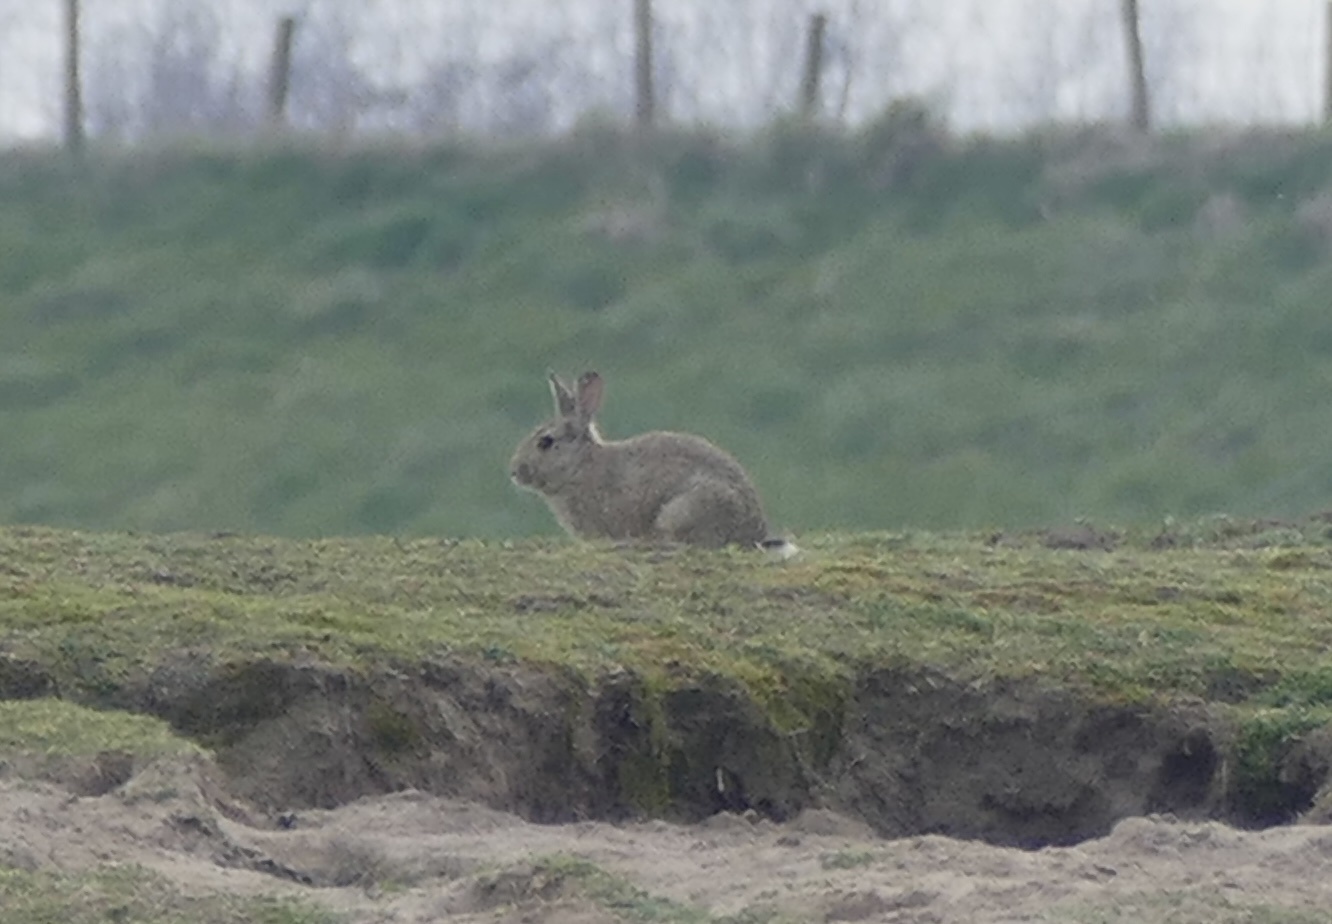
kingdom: Animalia
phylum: Chordata
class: Mammalia
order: Lagomorpha
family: Leporidae
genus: Oryctolagus
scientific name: Oryctolagus cuniculus
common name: European rabbit
